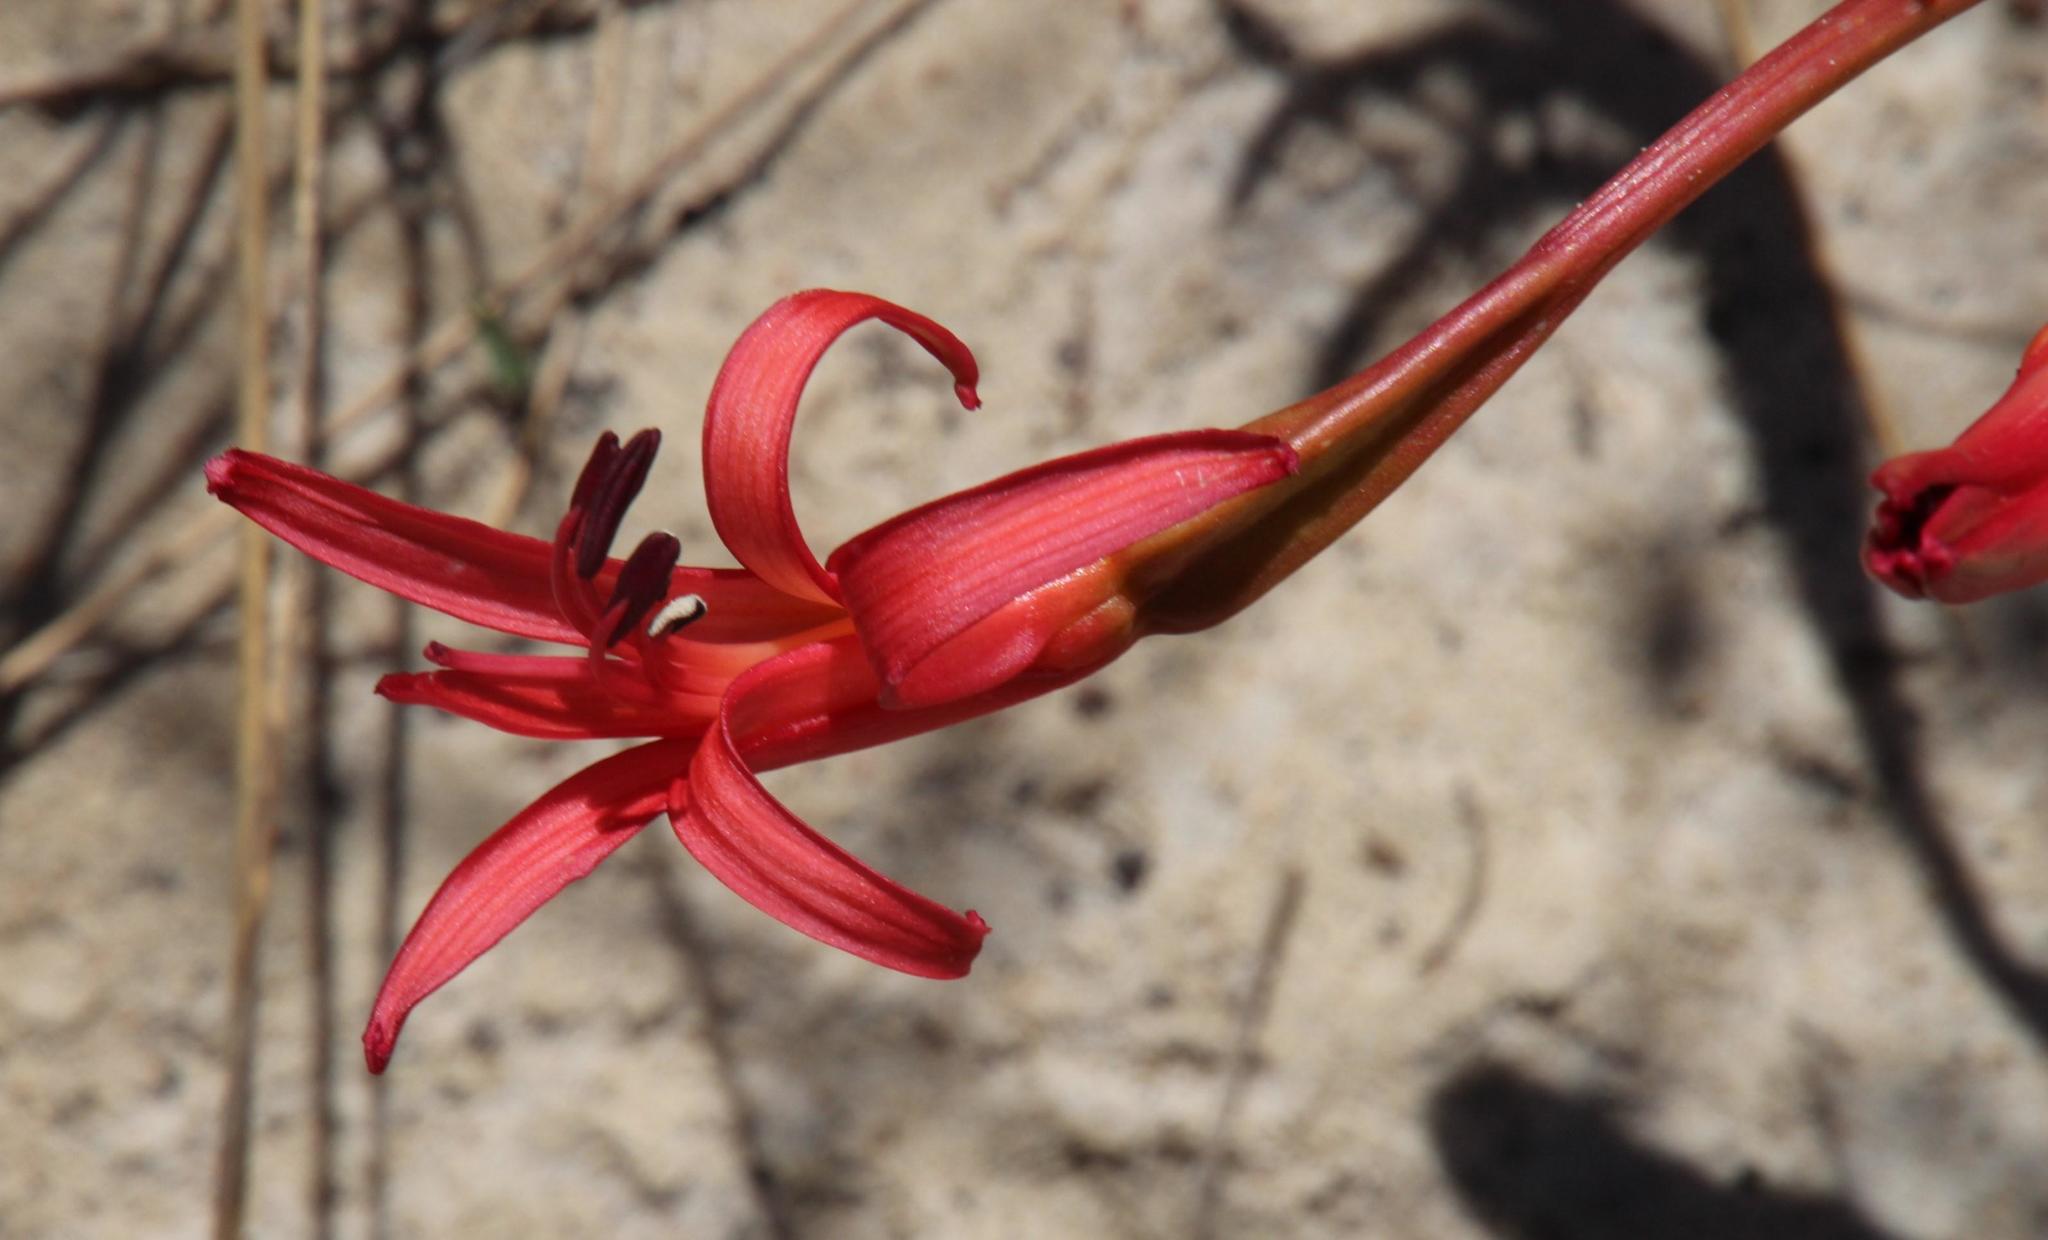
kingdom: Plantae
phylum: Tracheophyta
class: Liliopsida
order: Asparagales
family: Amaryllidaceae
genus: Brunsvigia
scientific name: Brunsvigia orientalis
